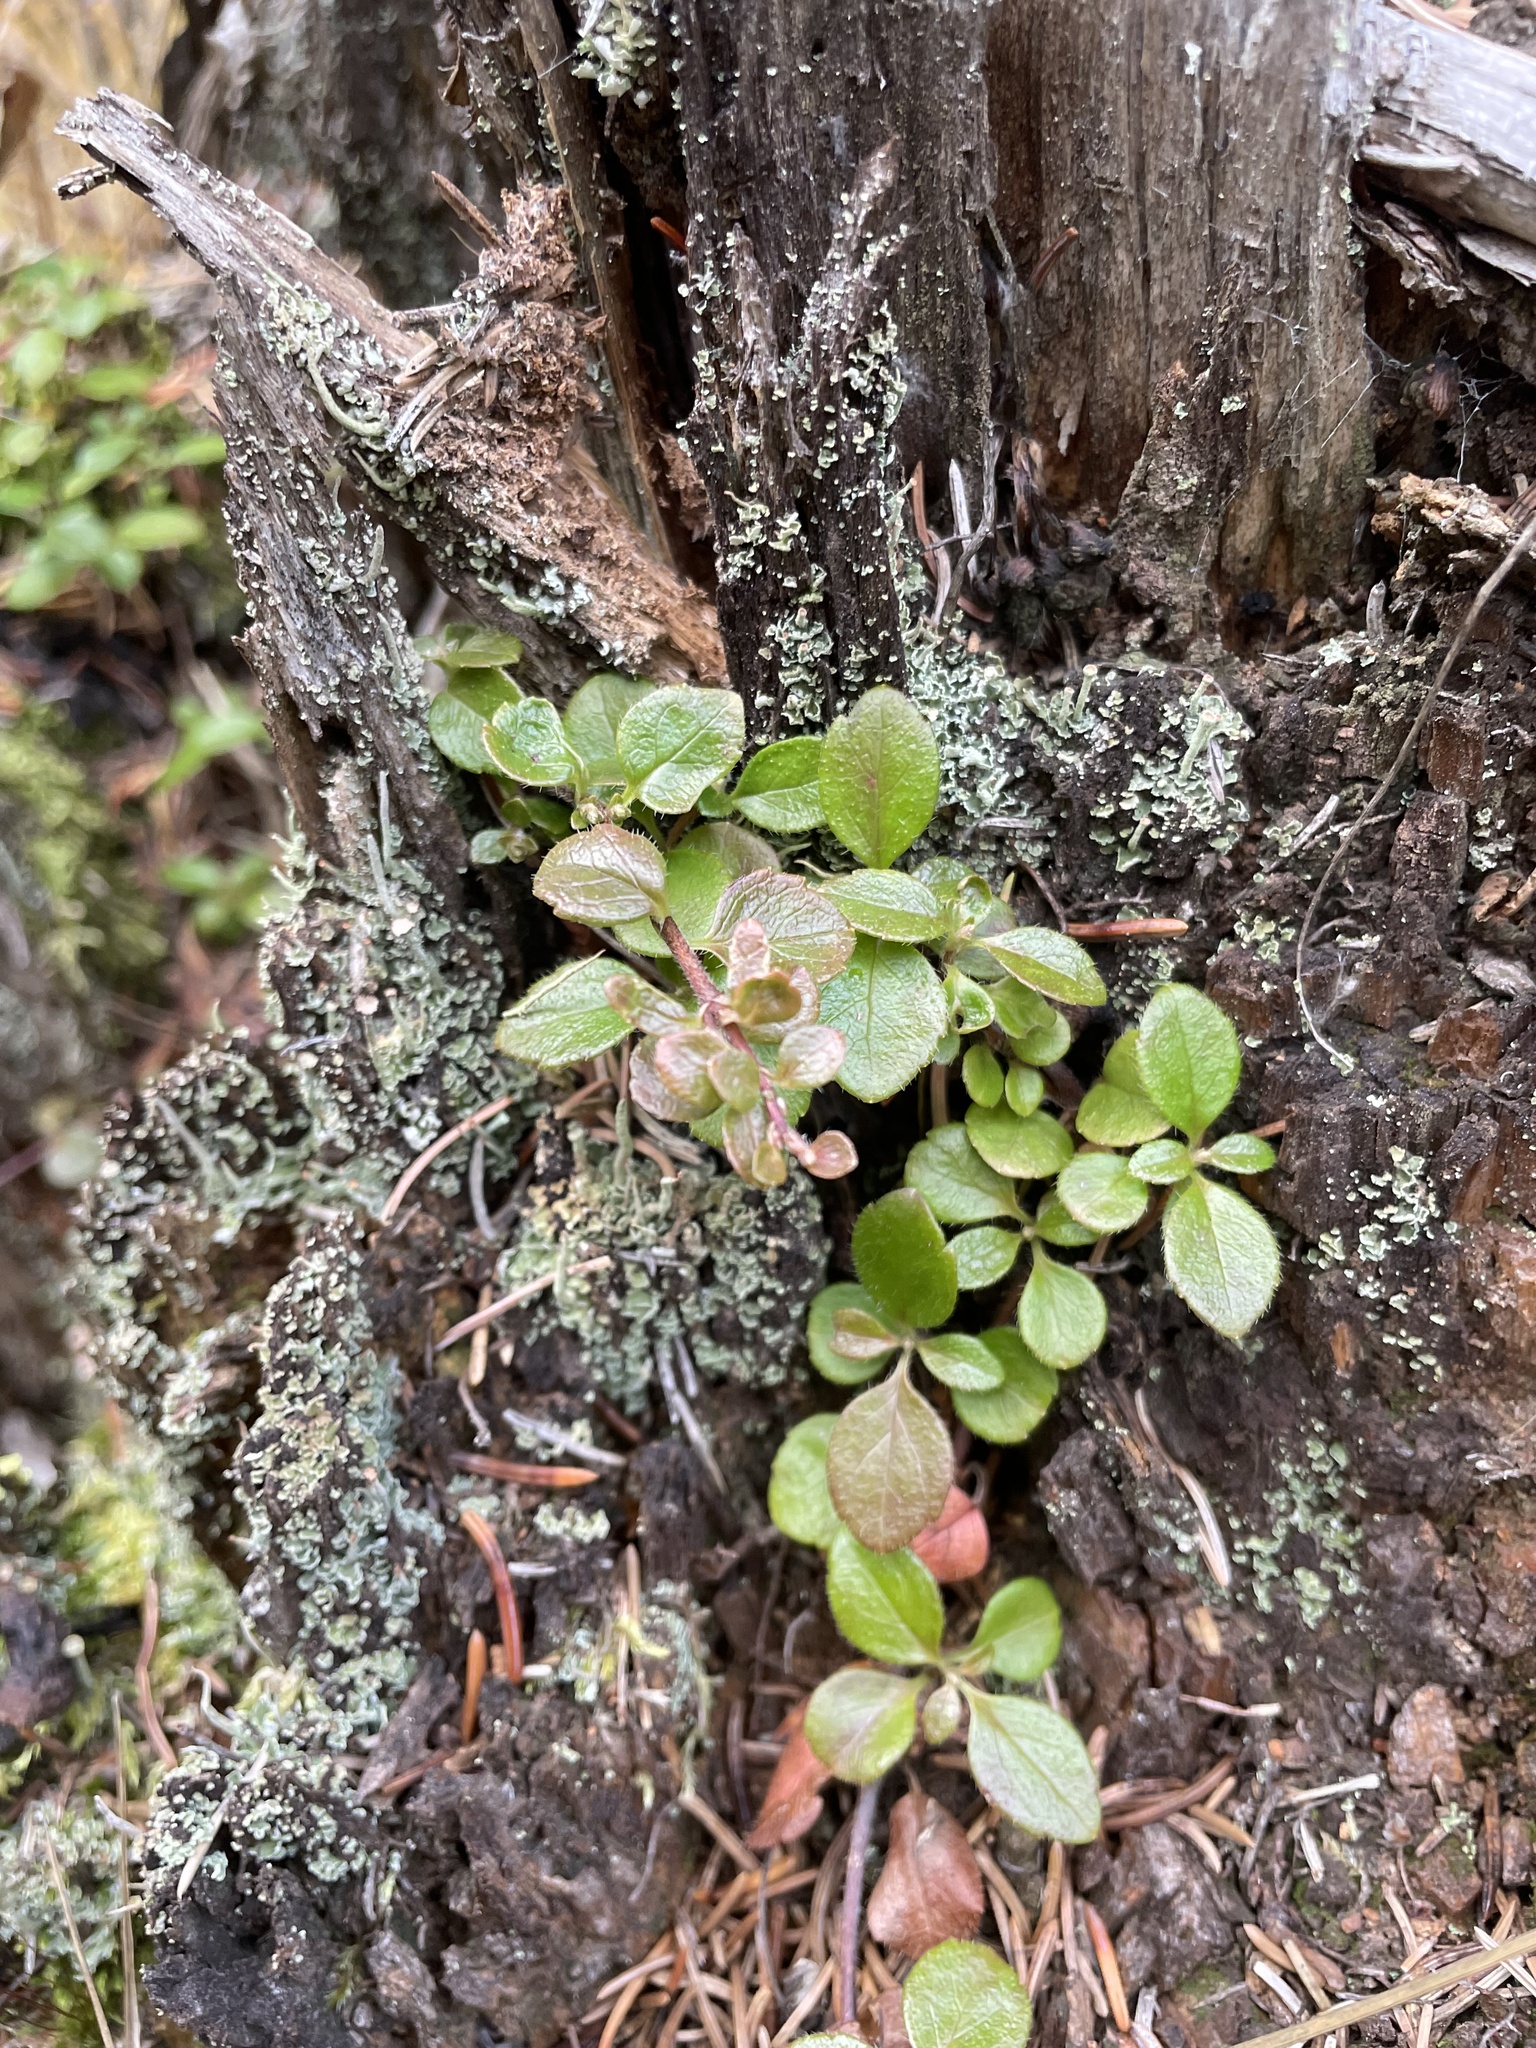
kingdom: Plantae
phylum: Tracheophyta
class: Magnoliopsida
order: Dipsacales
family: Caprifoliaceae
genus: Linnaea
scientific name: Linnaea borealis
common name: Twinflower
